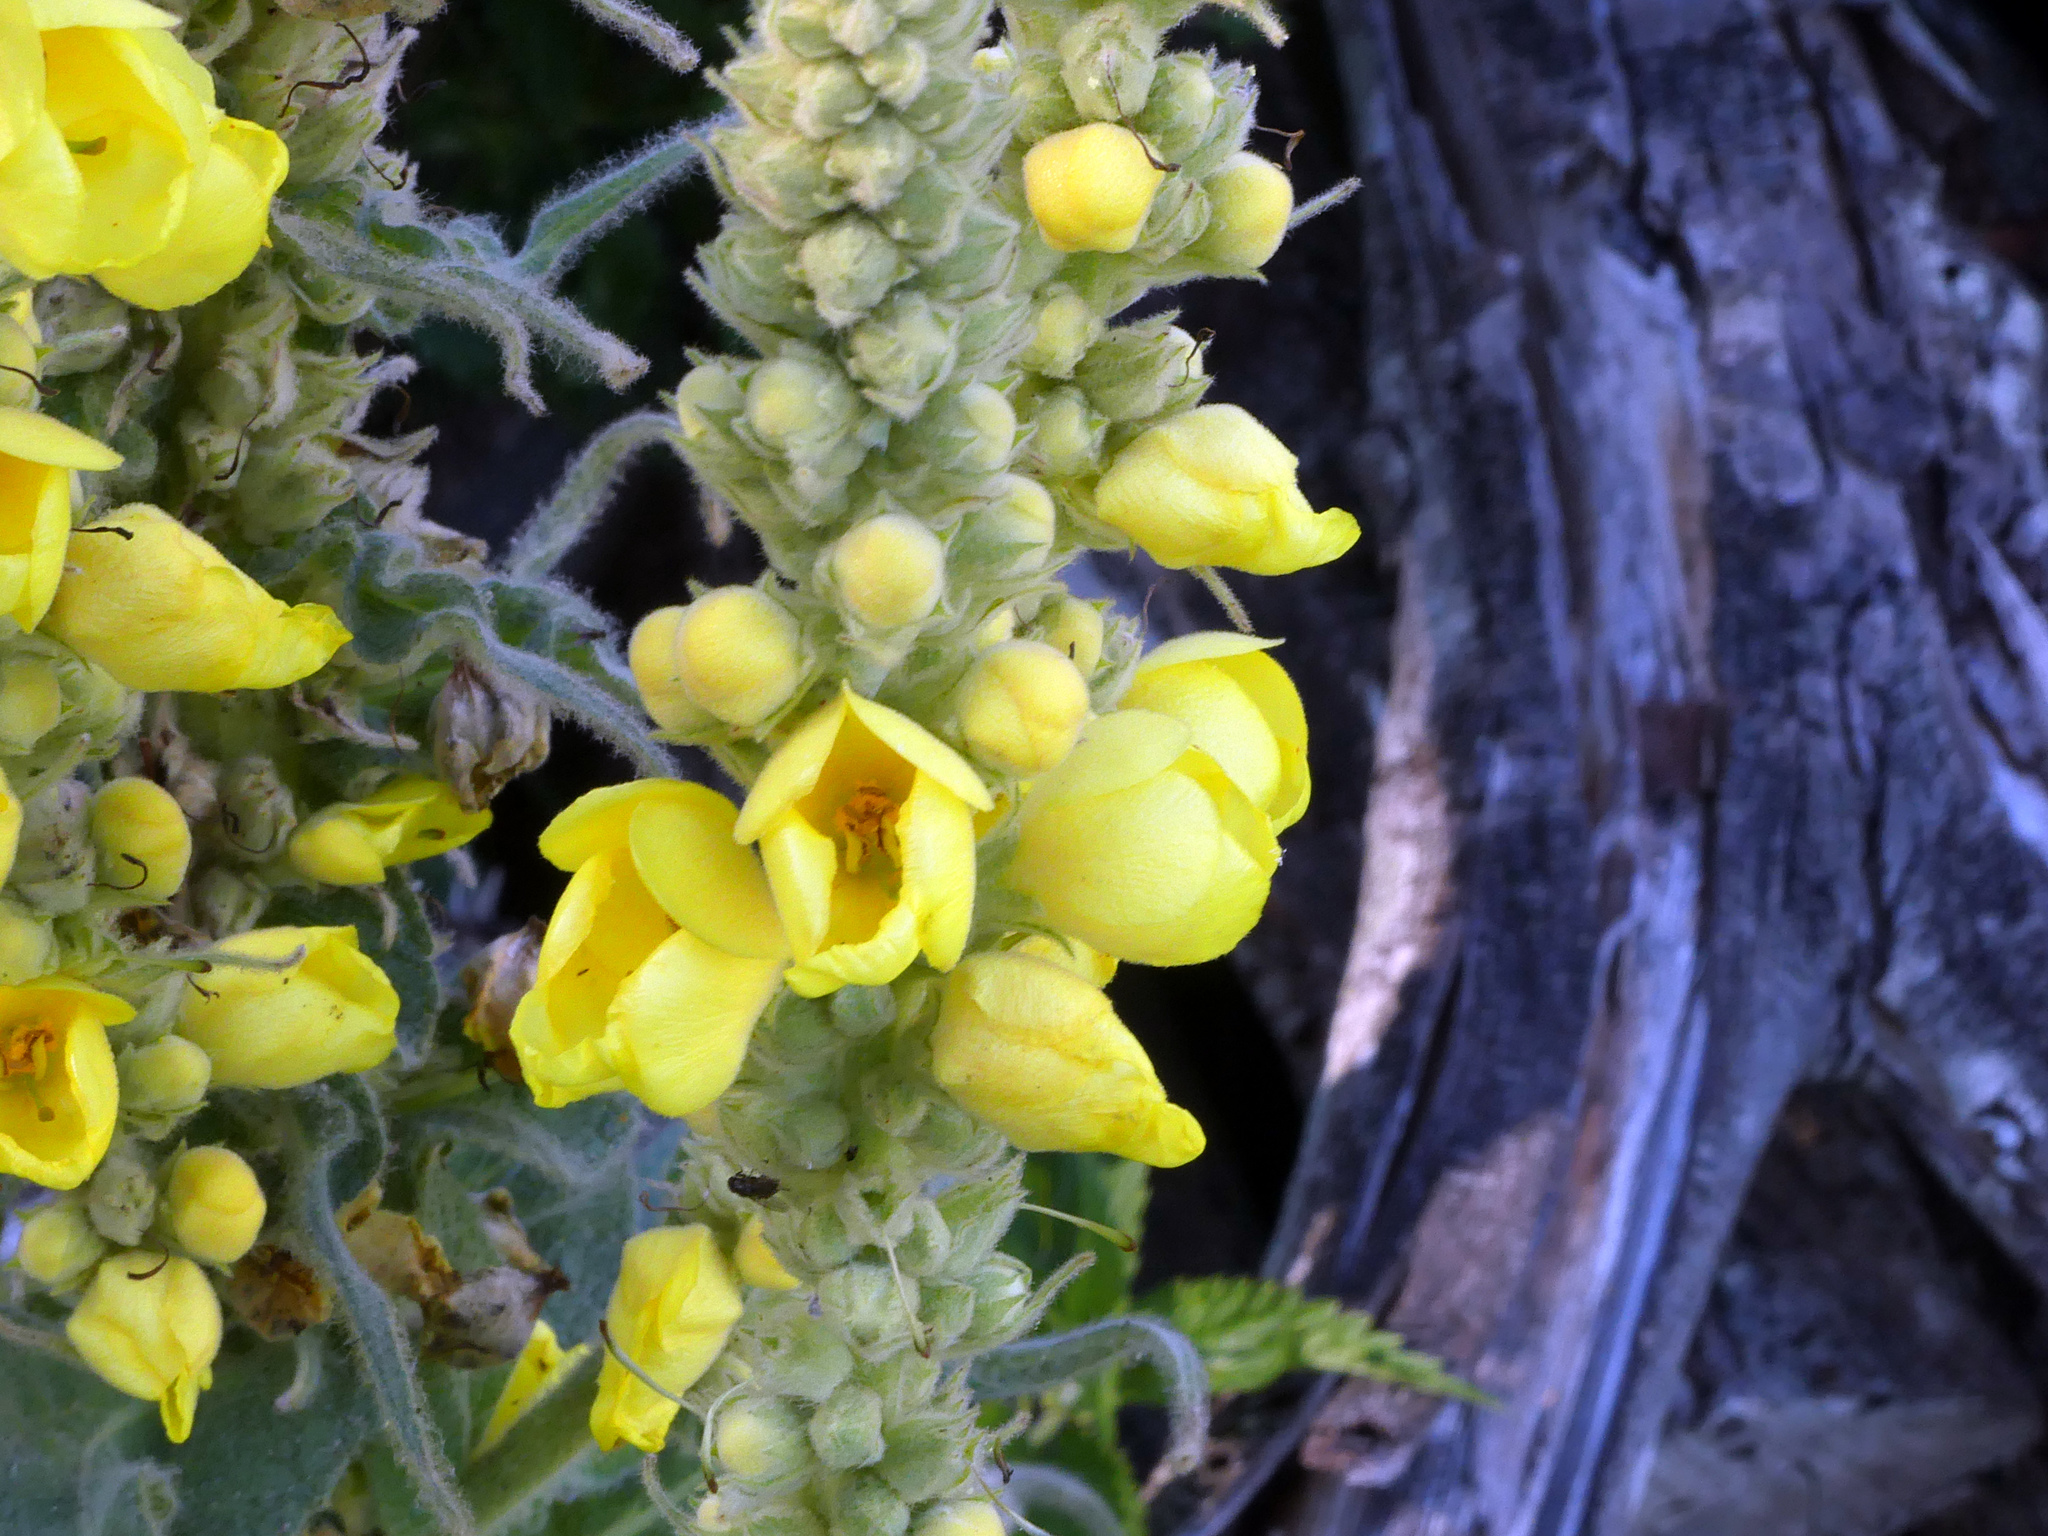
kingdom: Plantae
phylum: Tracheophyta
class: Magnoliopsida
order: Lamiales
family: Scrophulariaceae
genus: Verbascum
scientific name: Verbascum thapsus
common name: Common mullein
